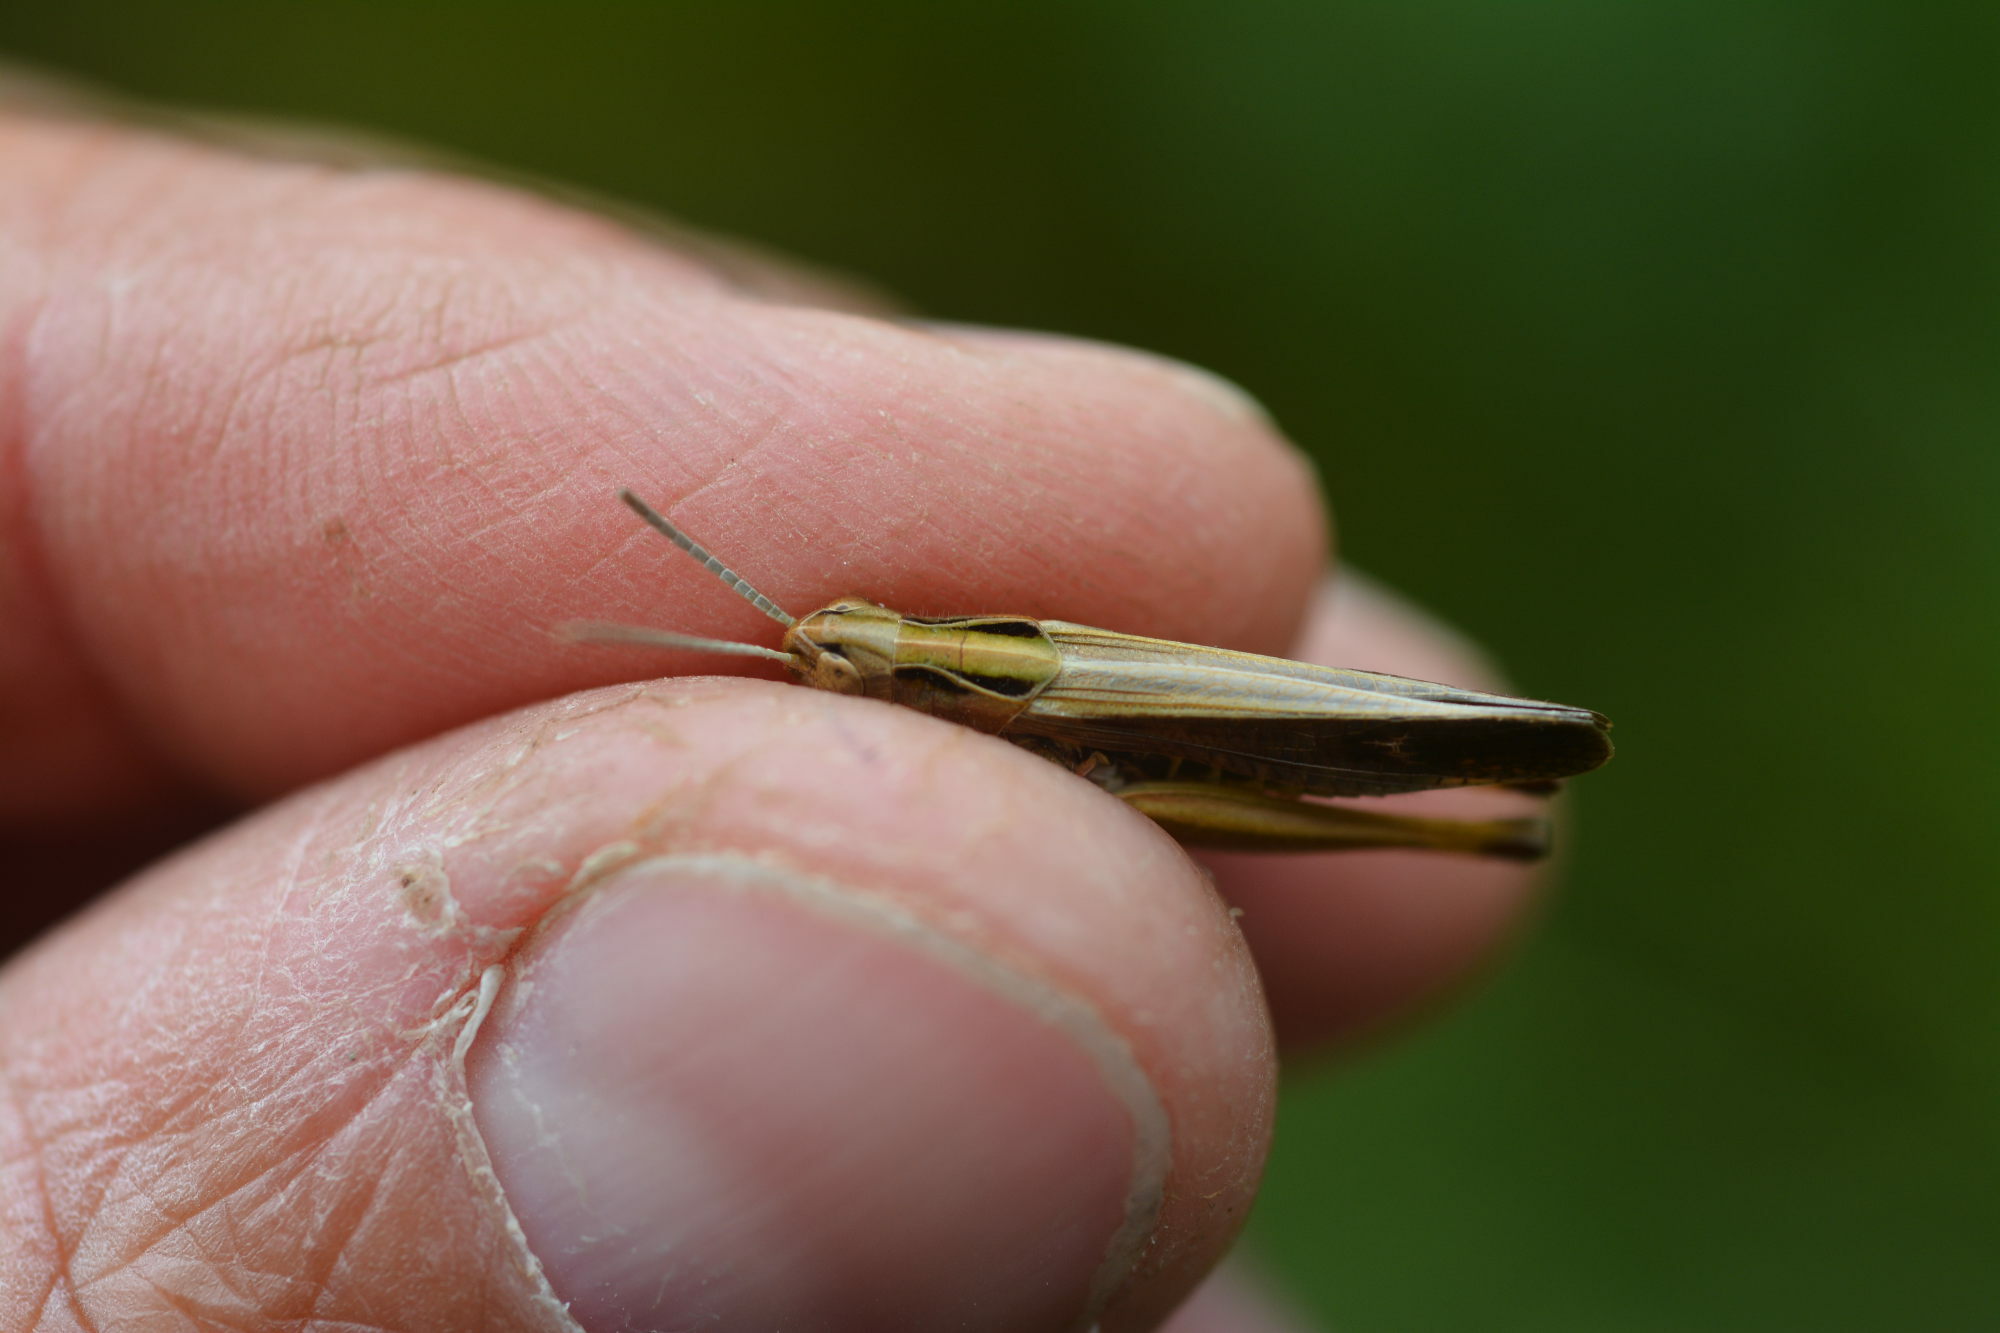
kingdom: Animalia
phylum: Arthropoda
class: Insecta
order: Orthoptera
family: Acrididae
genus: Omocestus
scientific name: Omocestus viridulus
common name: Common green grasshopper
